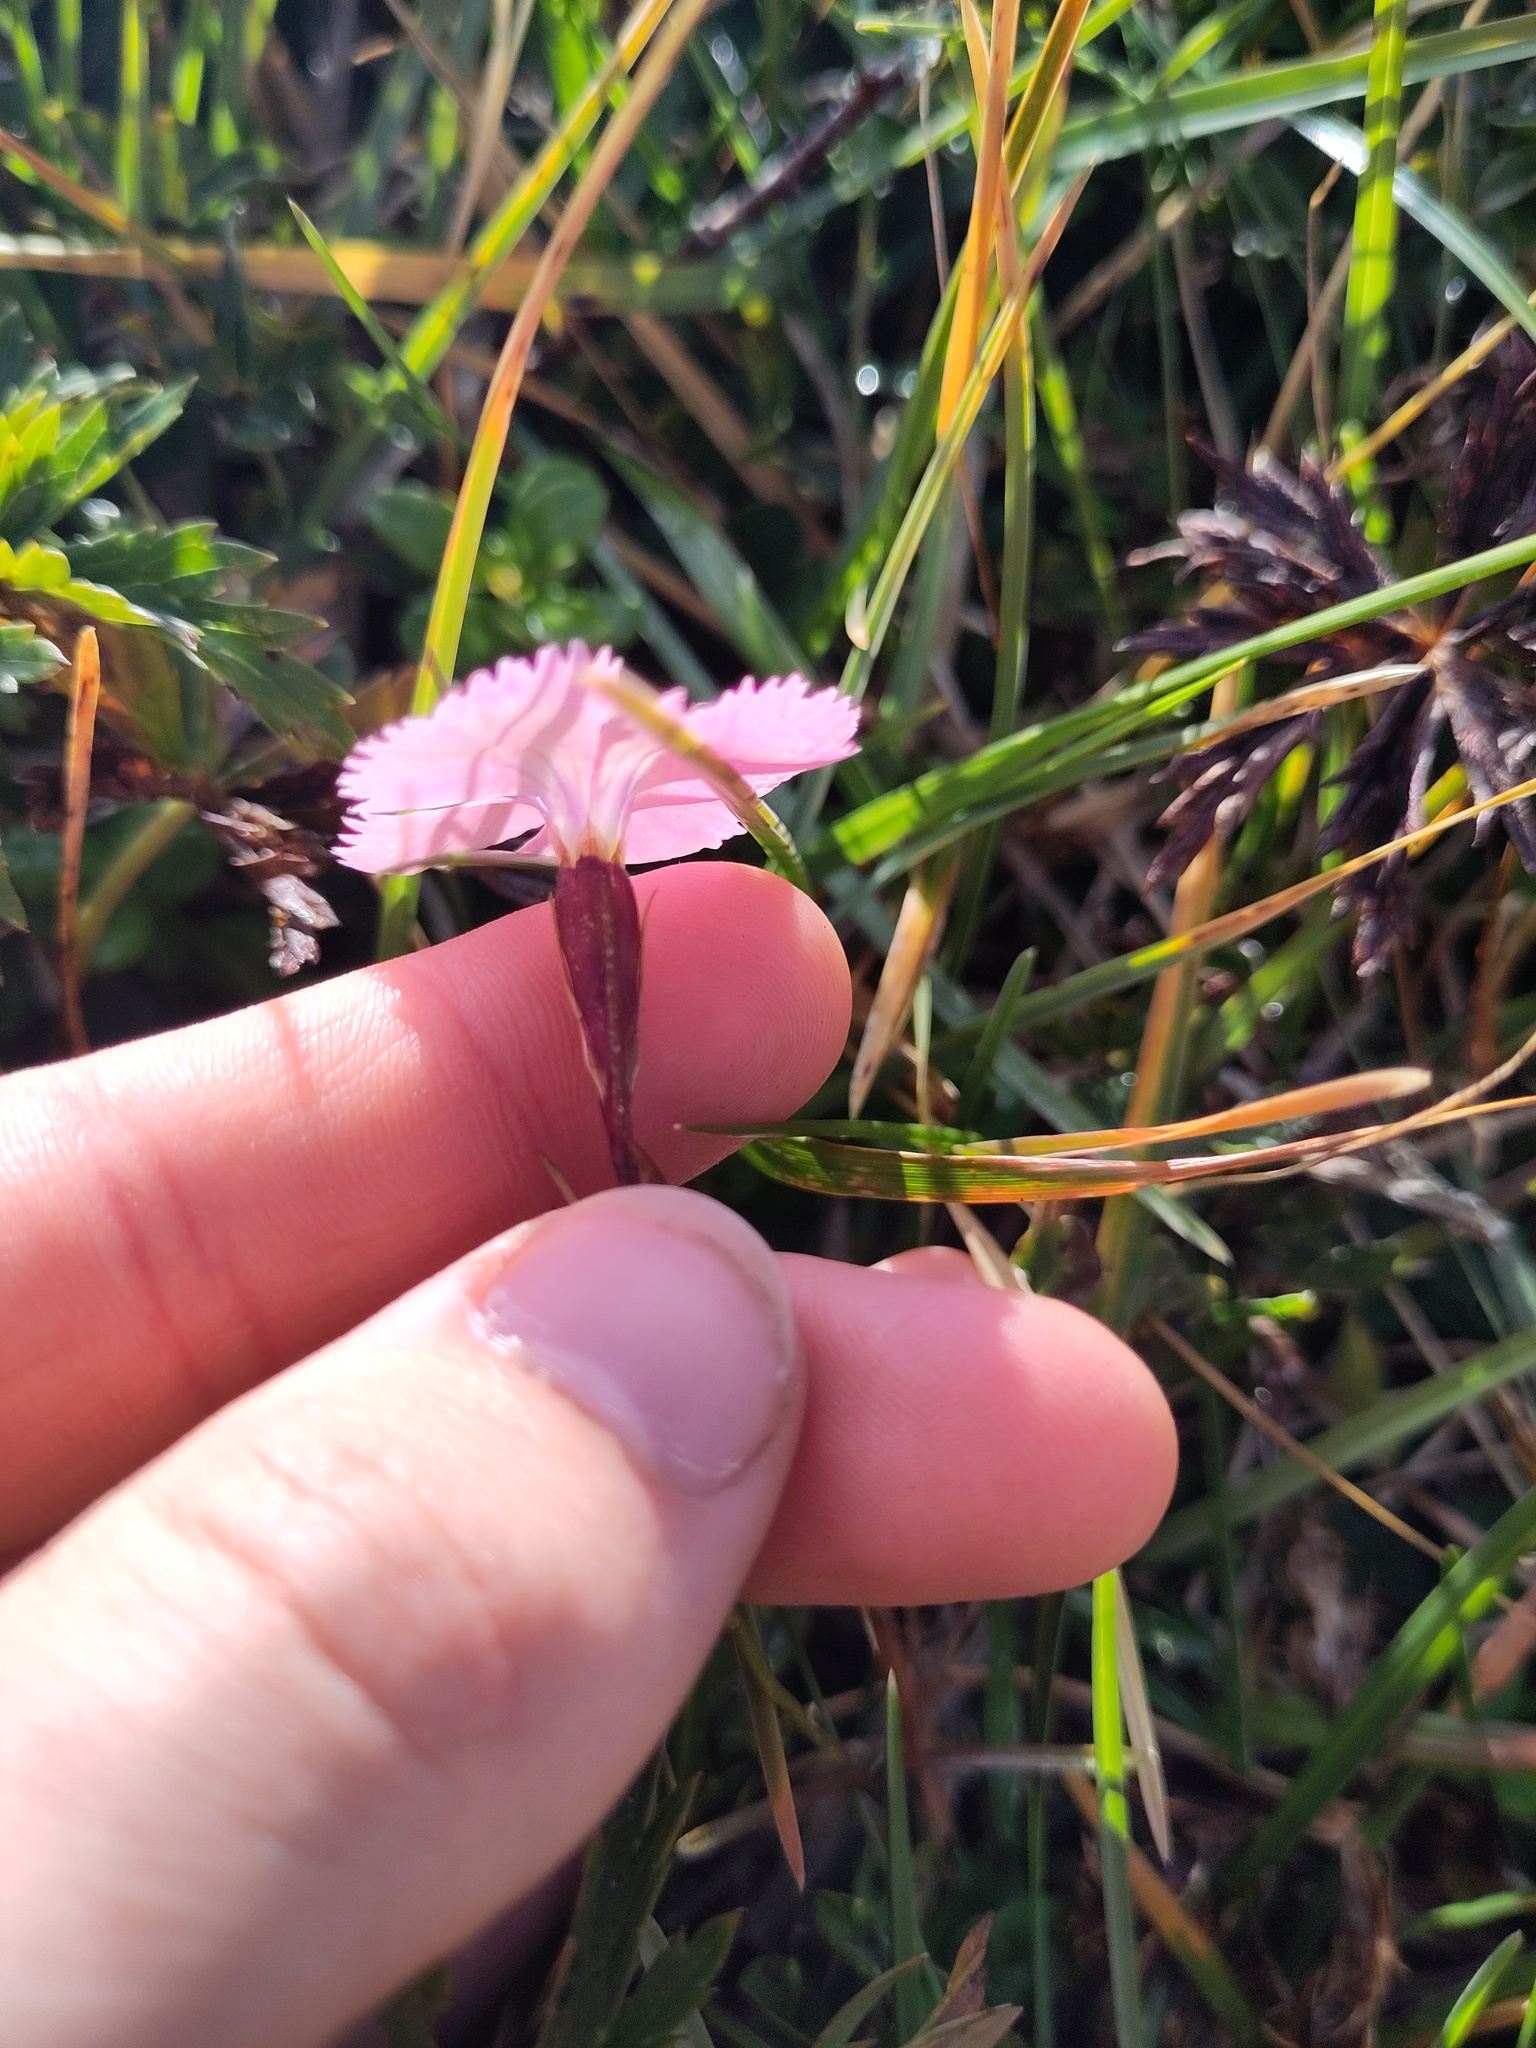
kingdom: Plantae
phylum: Tracheophyta
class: Magnoliopsida
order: Caryophyllales
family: Caryophyllaceae
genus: Dianthus
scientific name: Dianthus alpinus
